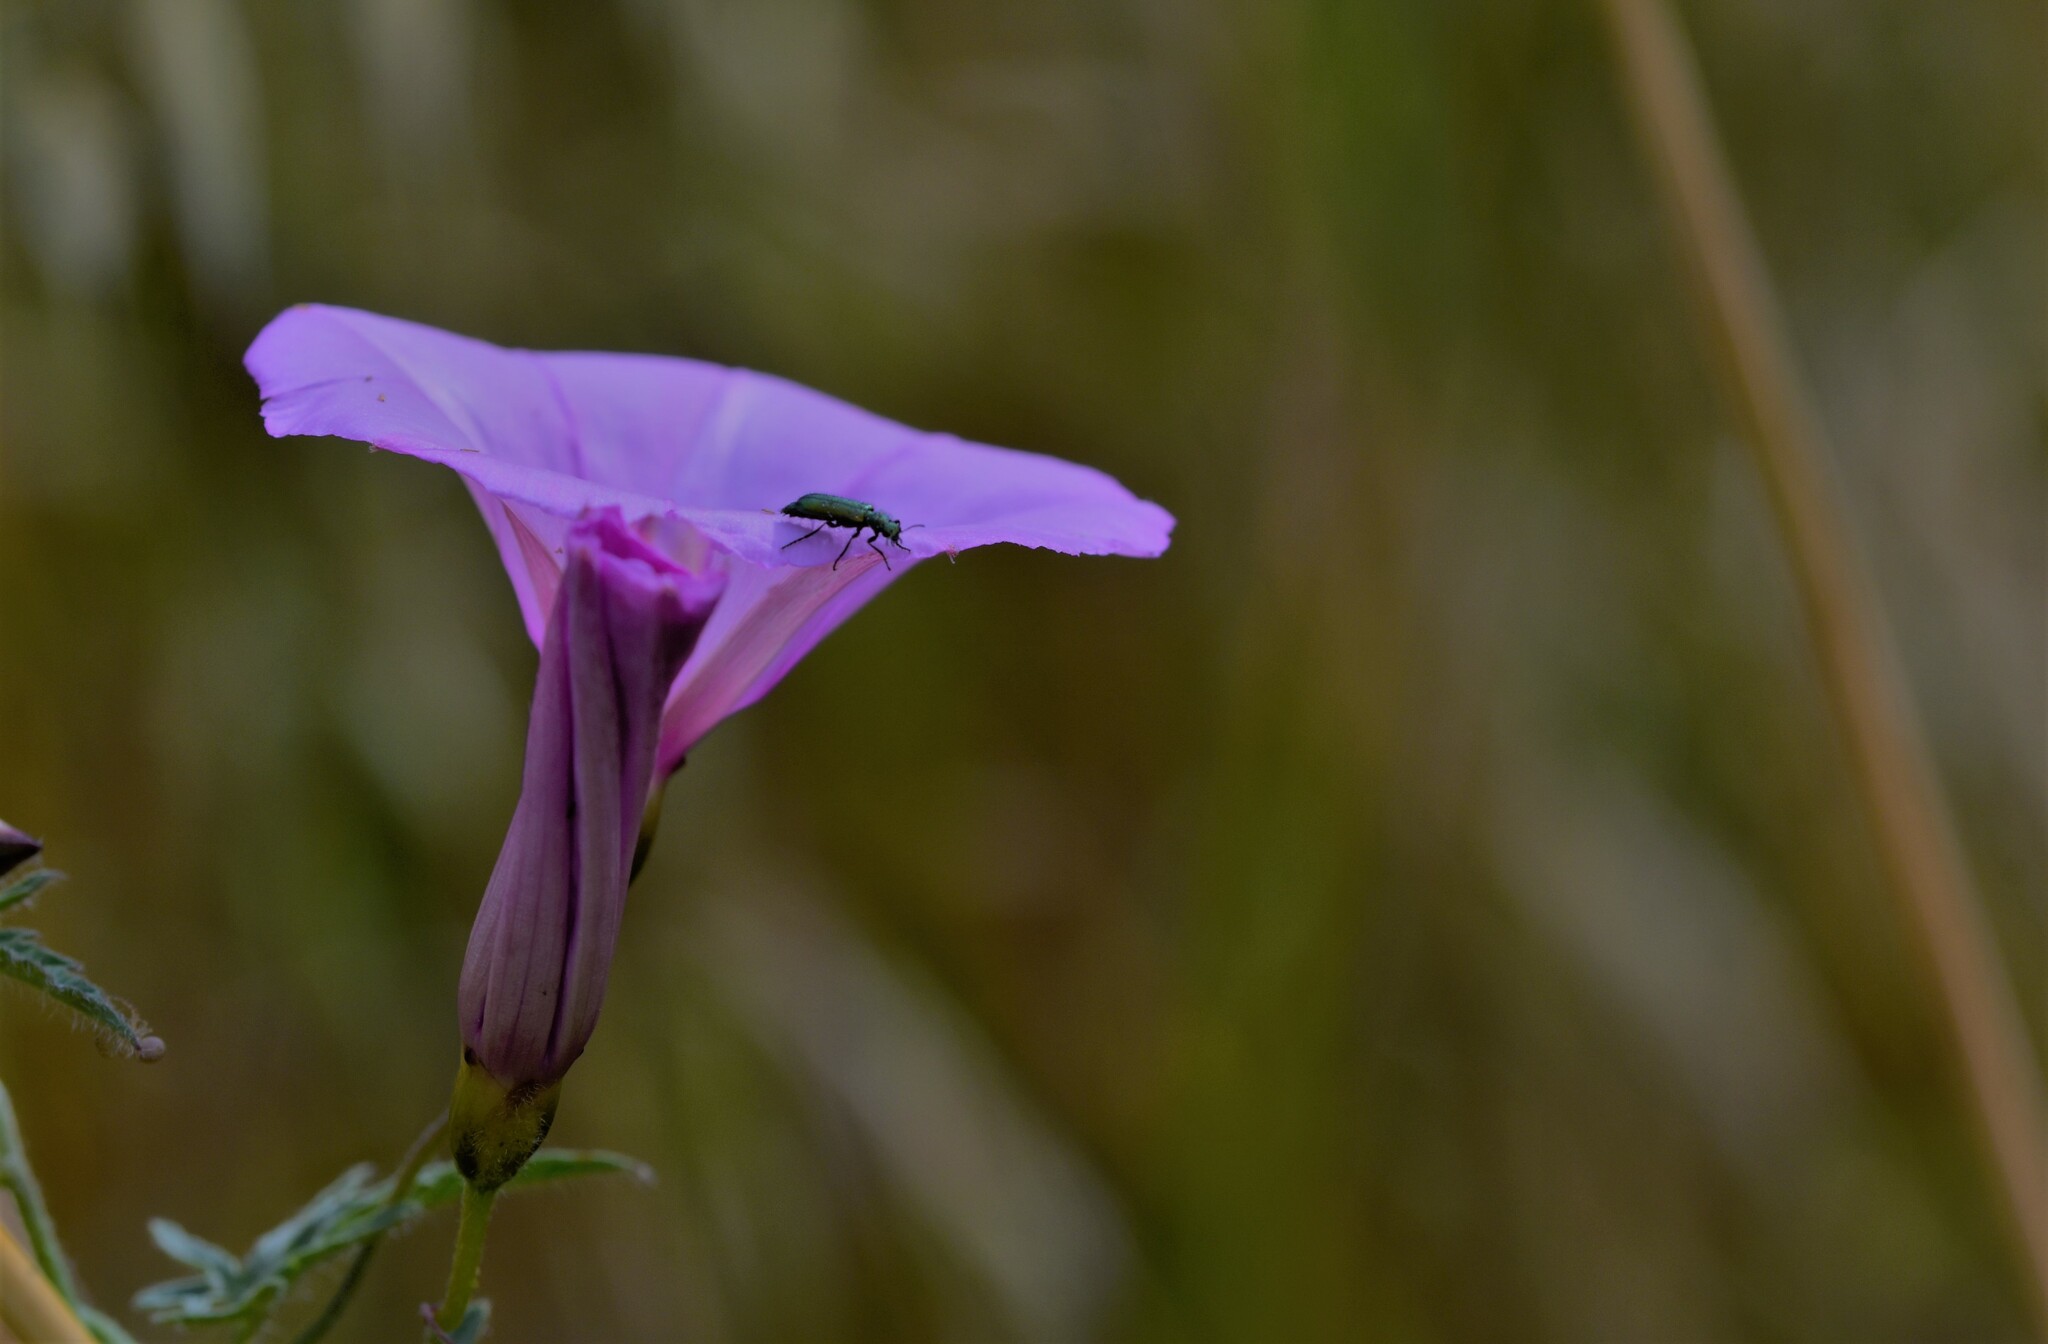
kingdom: Plantae
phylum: Tracheophyta
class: Magnoliopsida
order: Solanales
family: Convolvulaceae
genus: Convolvulus
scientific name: Convolvulus althaeoides
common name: Mallow bindweed
